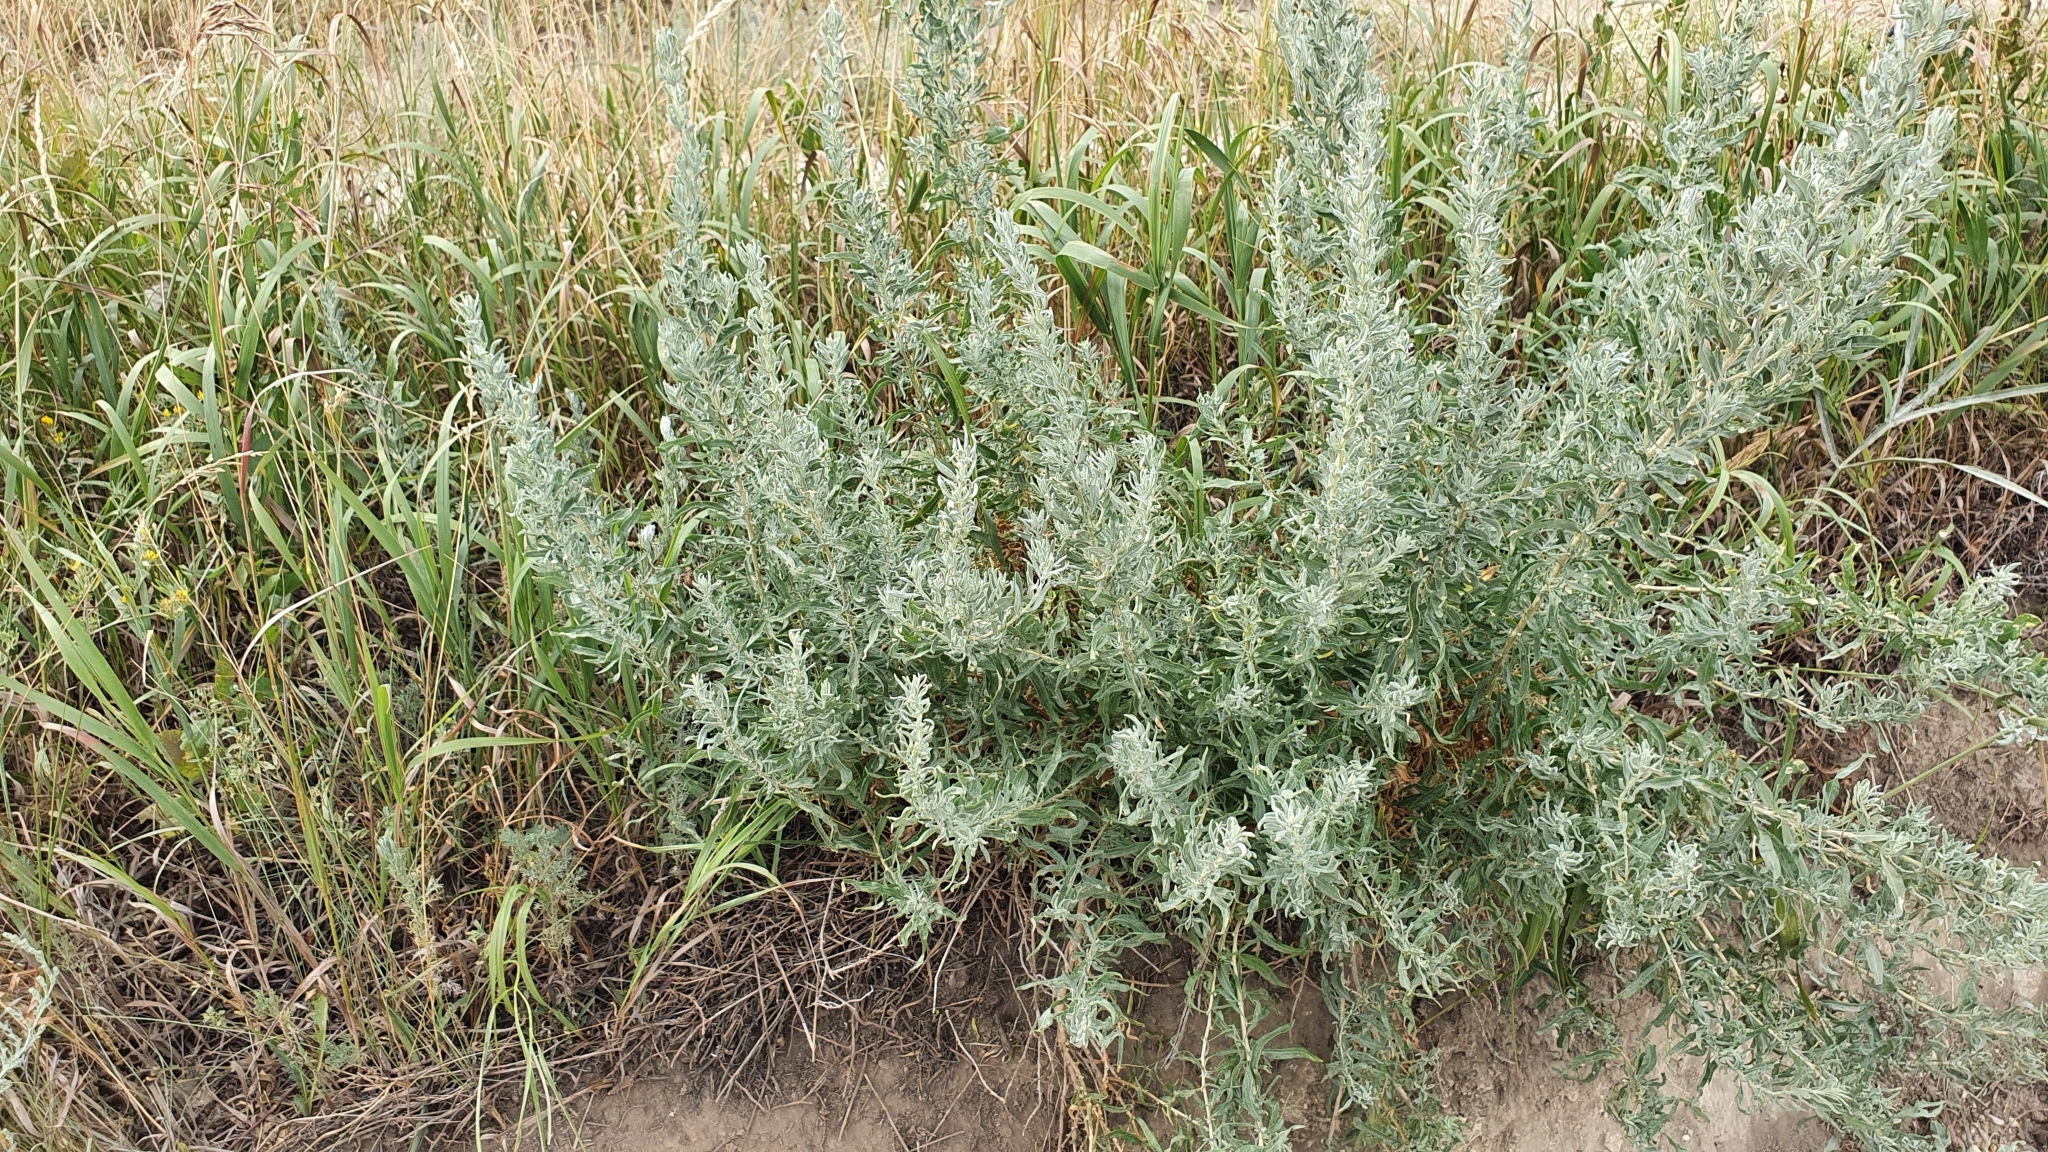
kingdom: Plantae
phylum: Tracheophyta
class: Magnoliopsida
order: Caryophyllales
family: Amaranthaceae
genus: Krascheninnikovia
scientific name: Krascheninnikovia ceratoides
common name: Pamirian winterfat
